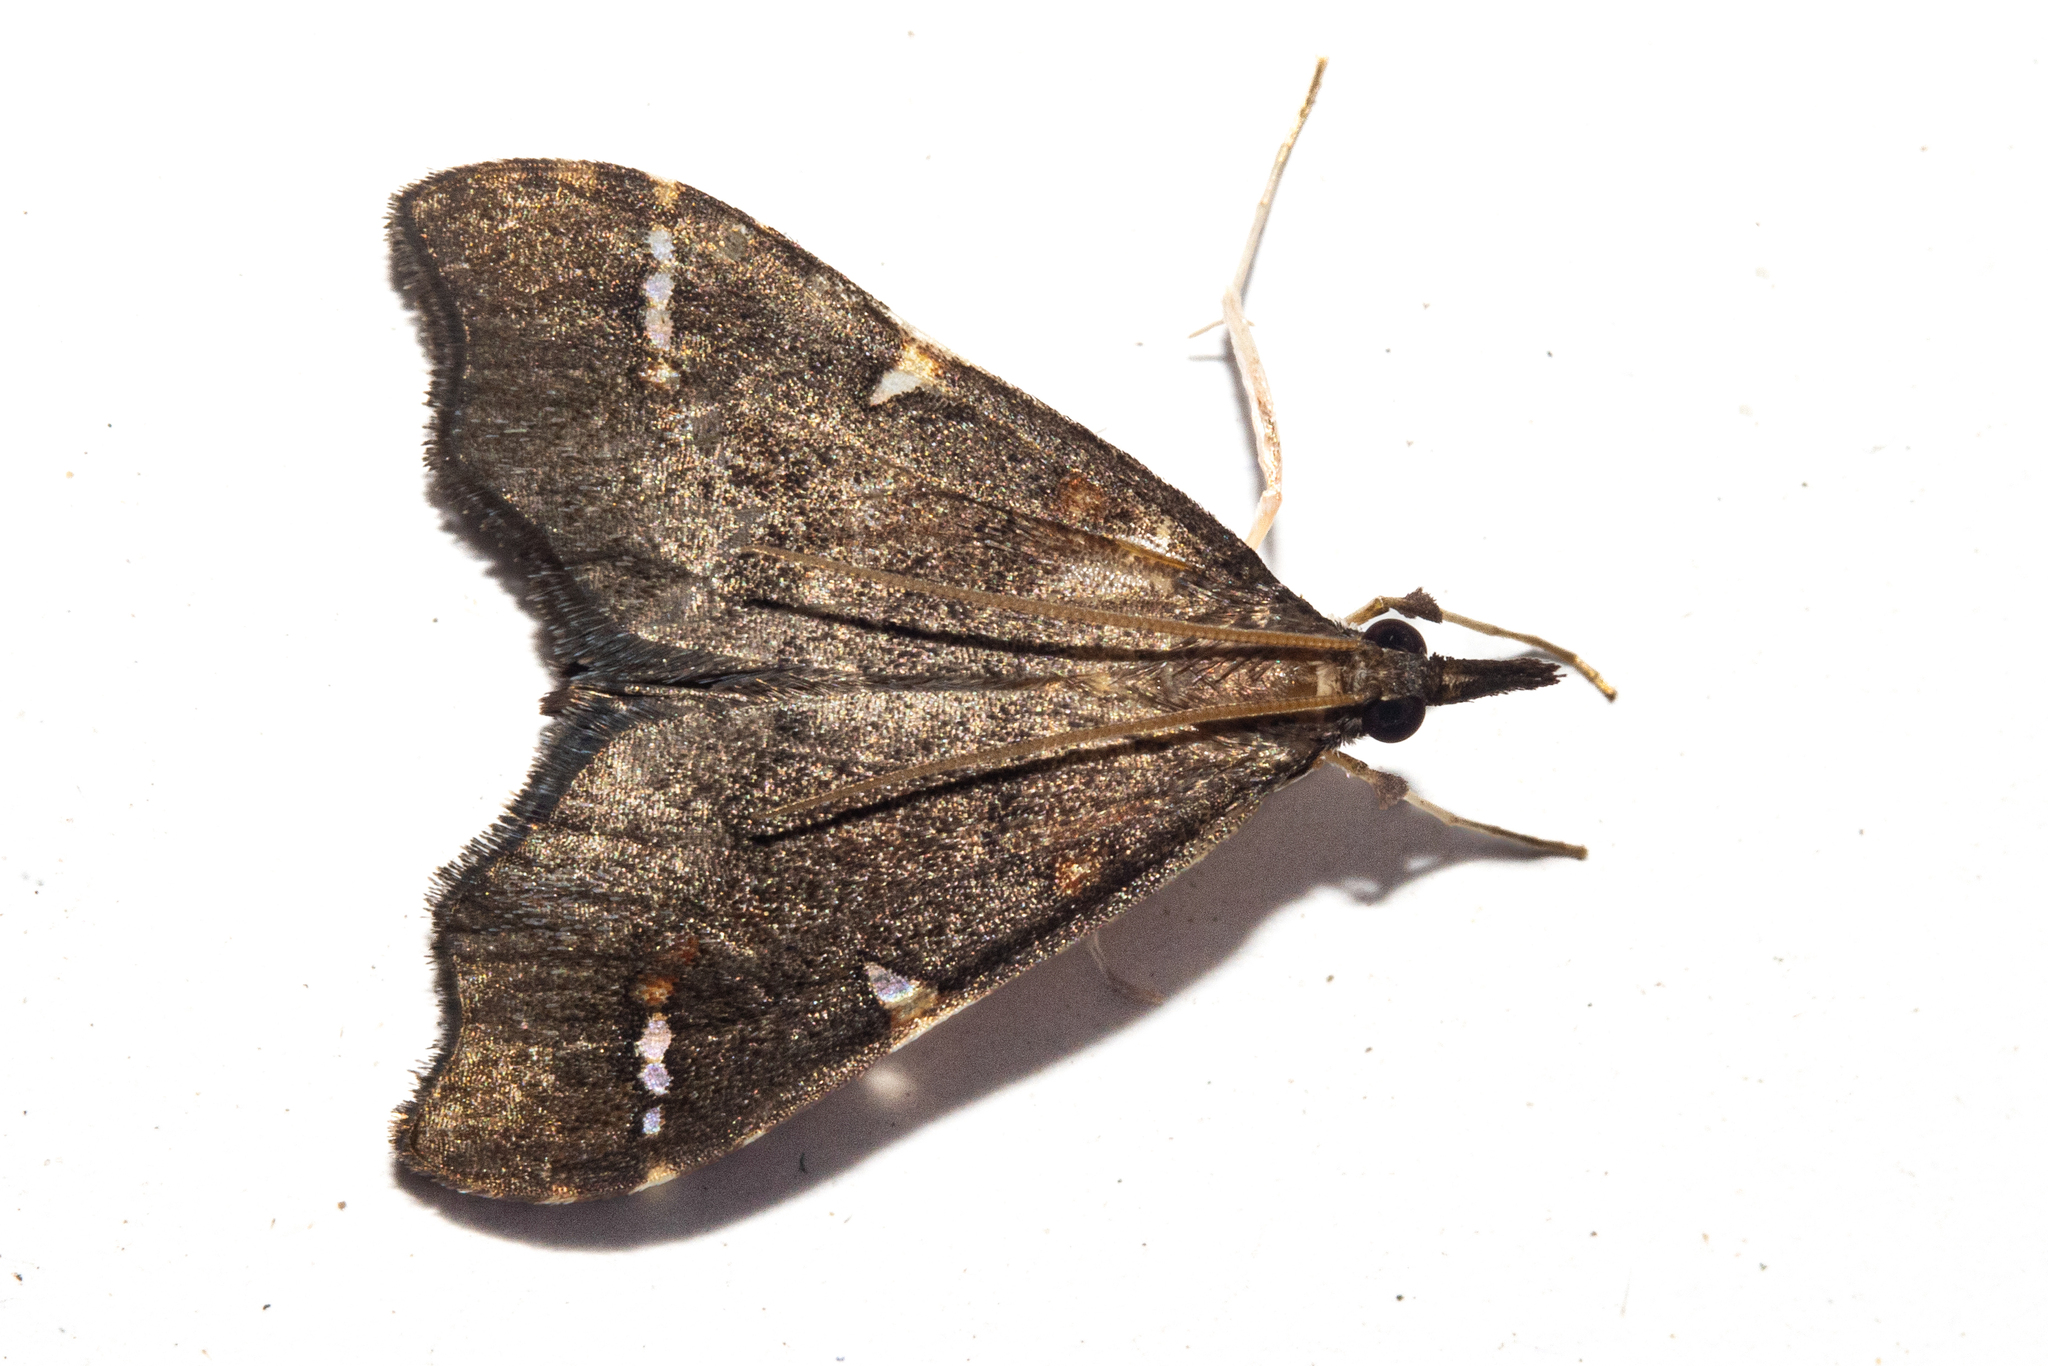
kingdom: Animalia
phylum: Arthropoda
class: Insecta
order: Lepidoptera
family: Crambidae
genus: Deana
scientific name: Deana hybreasalis
